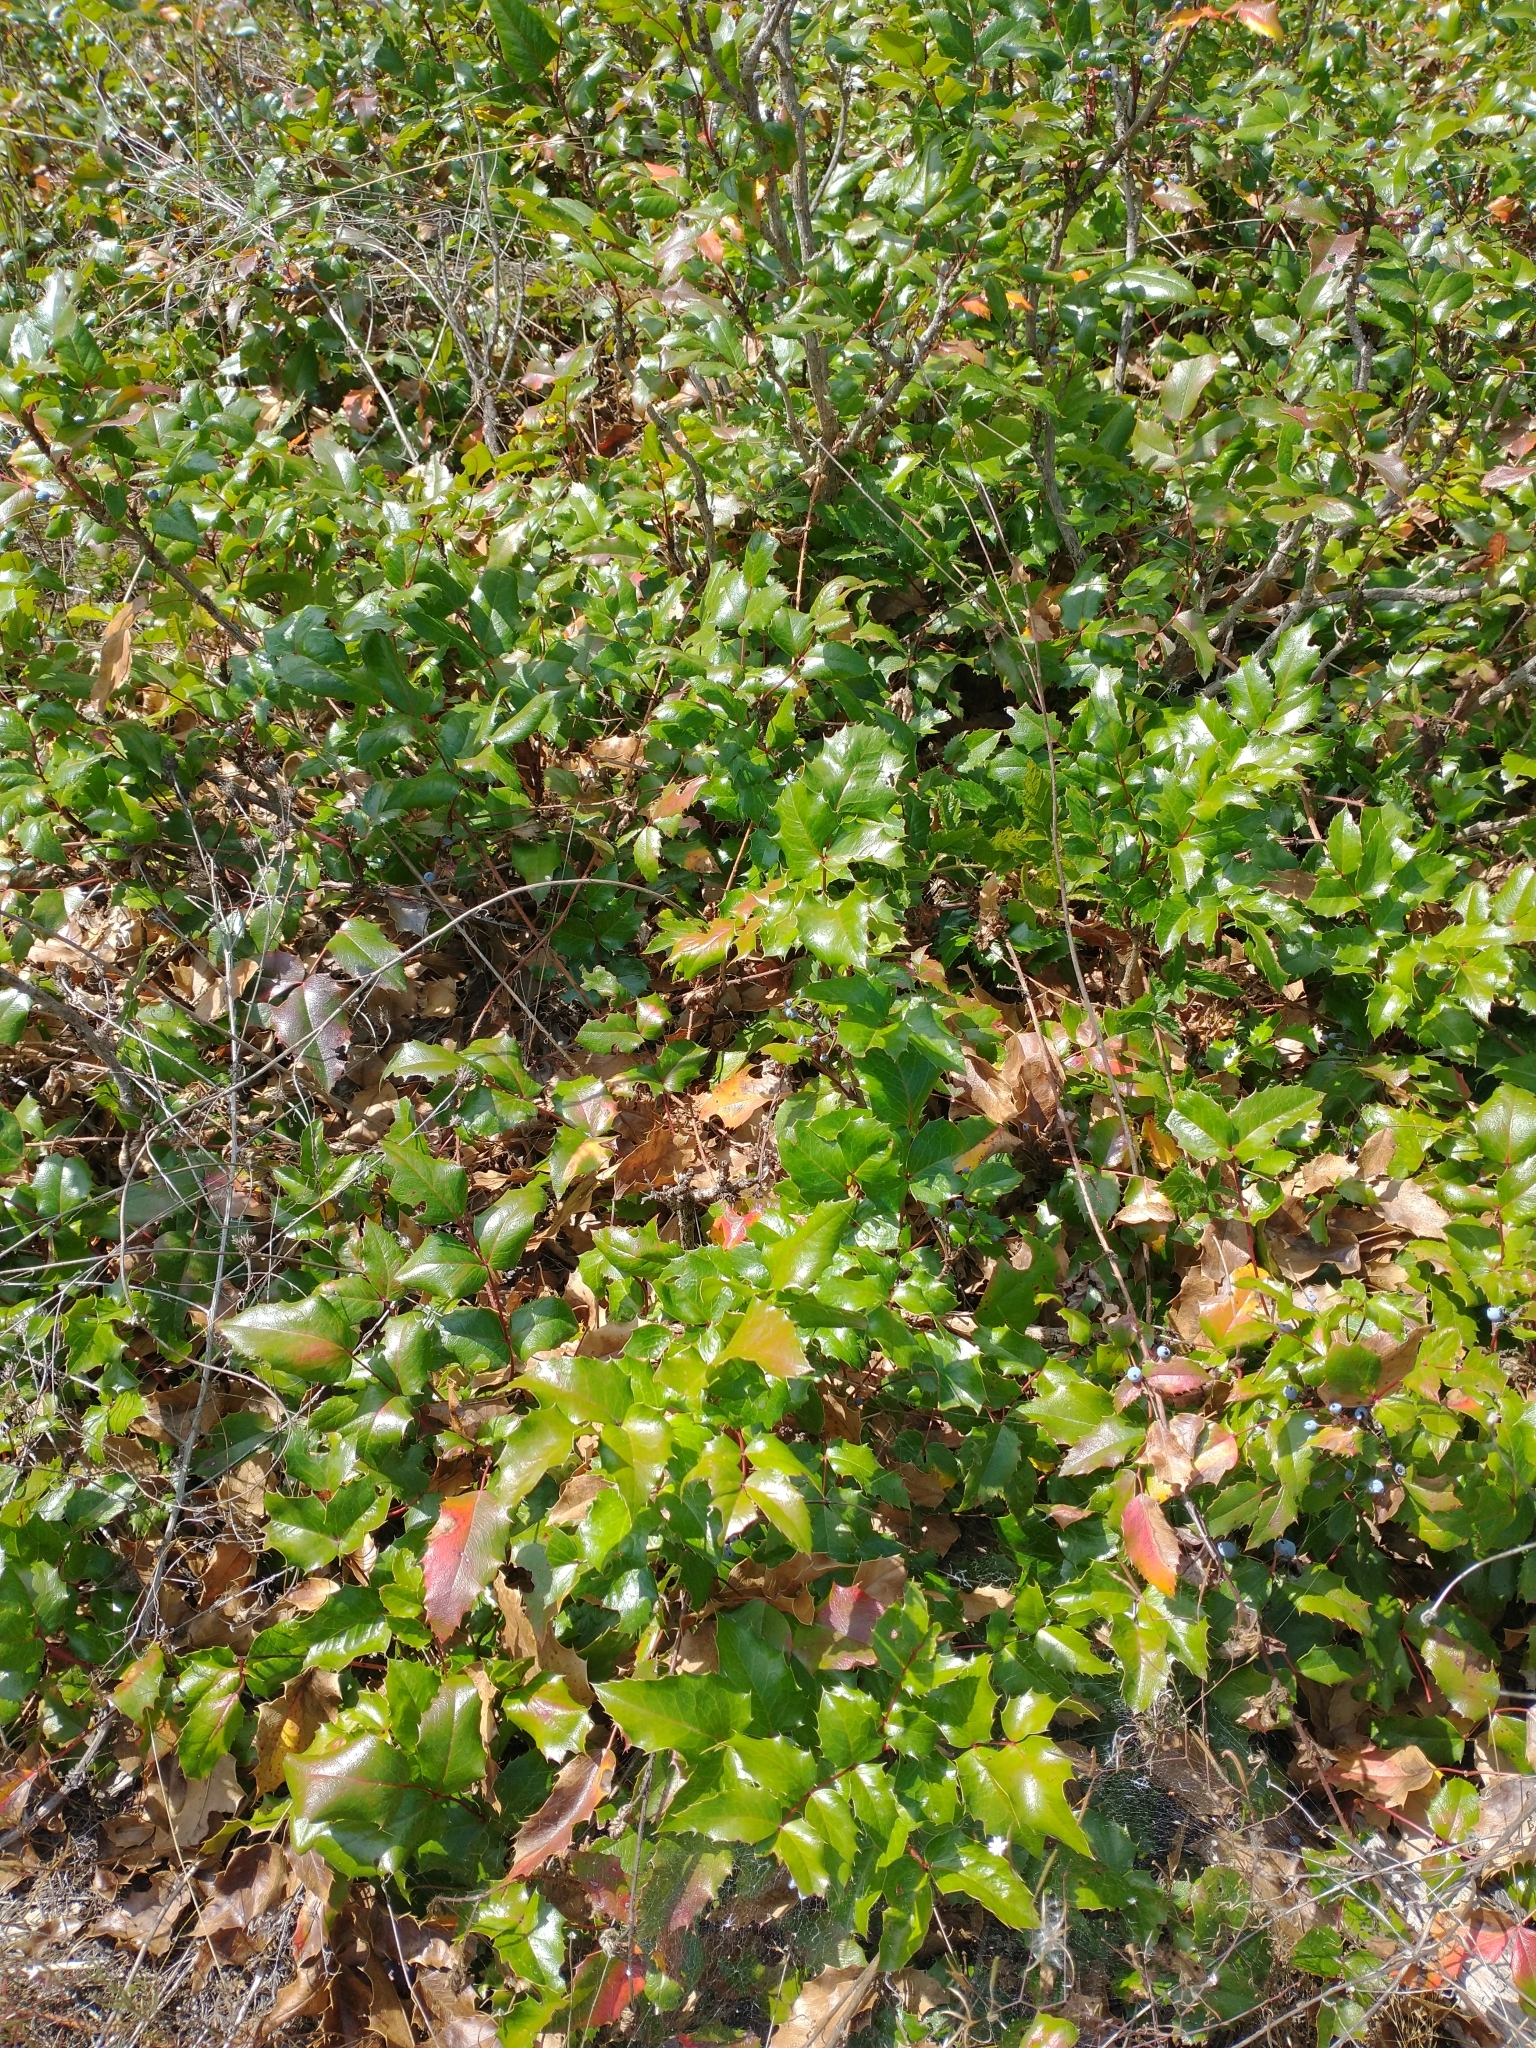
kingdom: Plantae
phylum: Tracheophyta
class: Magnoliopsida
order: Ranunculales
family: Berberidaceae
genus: Mahonia
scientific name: Mahonia aquifolium
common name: Oregon-grape
